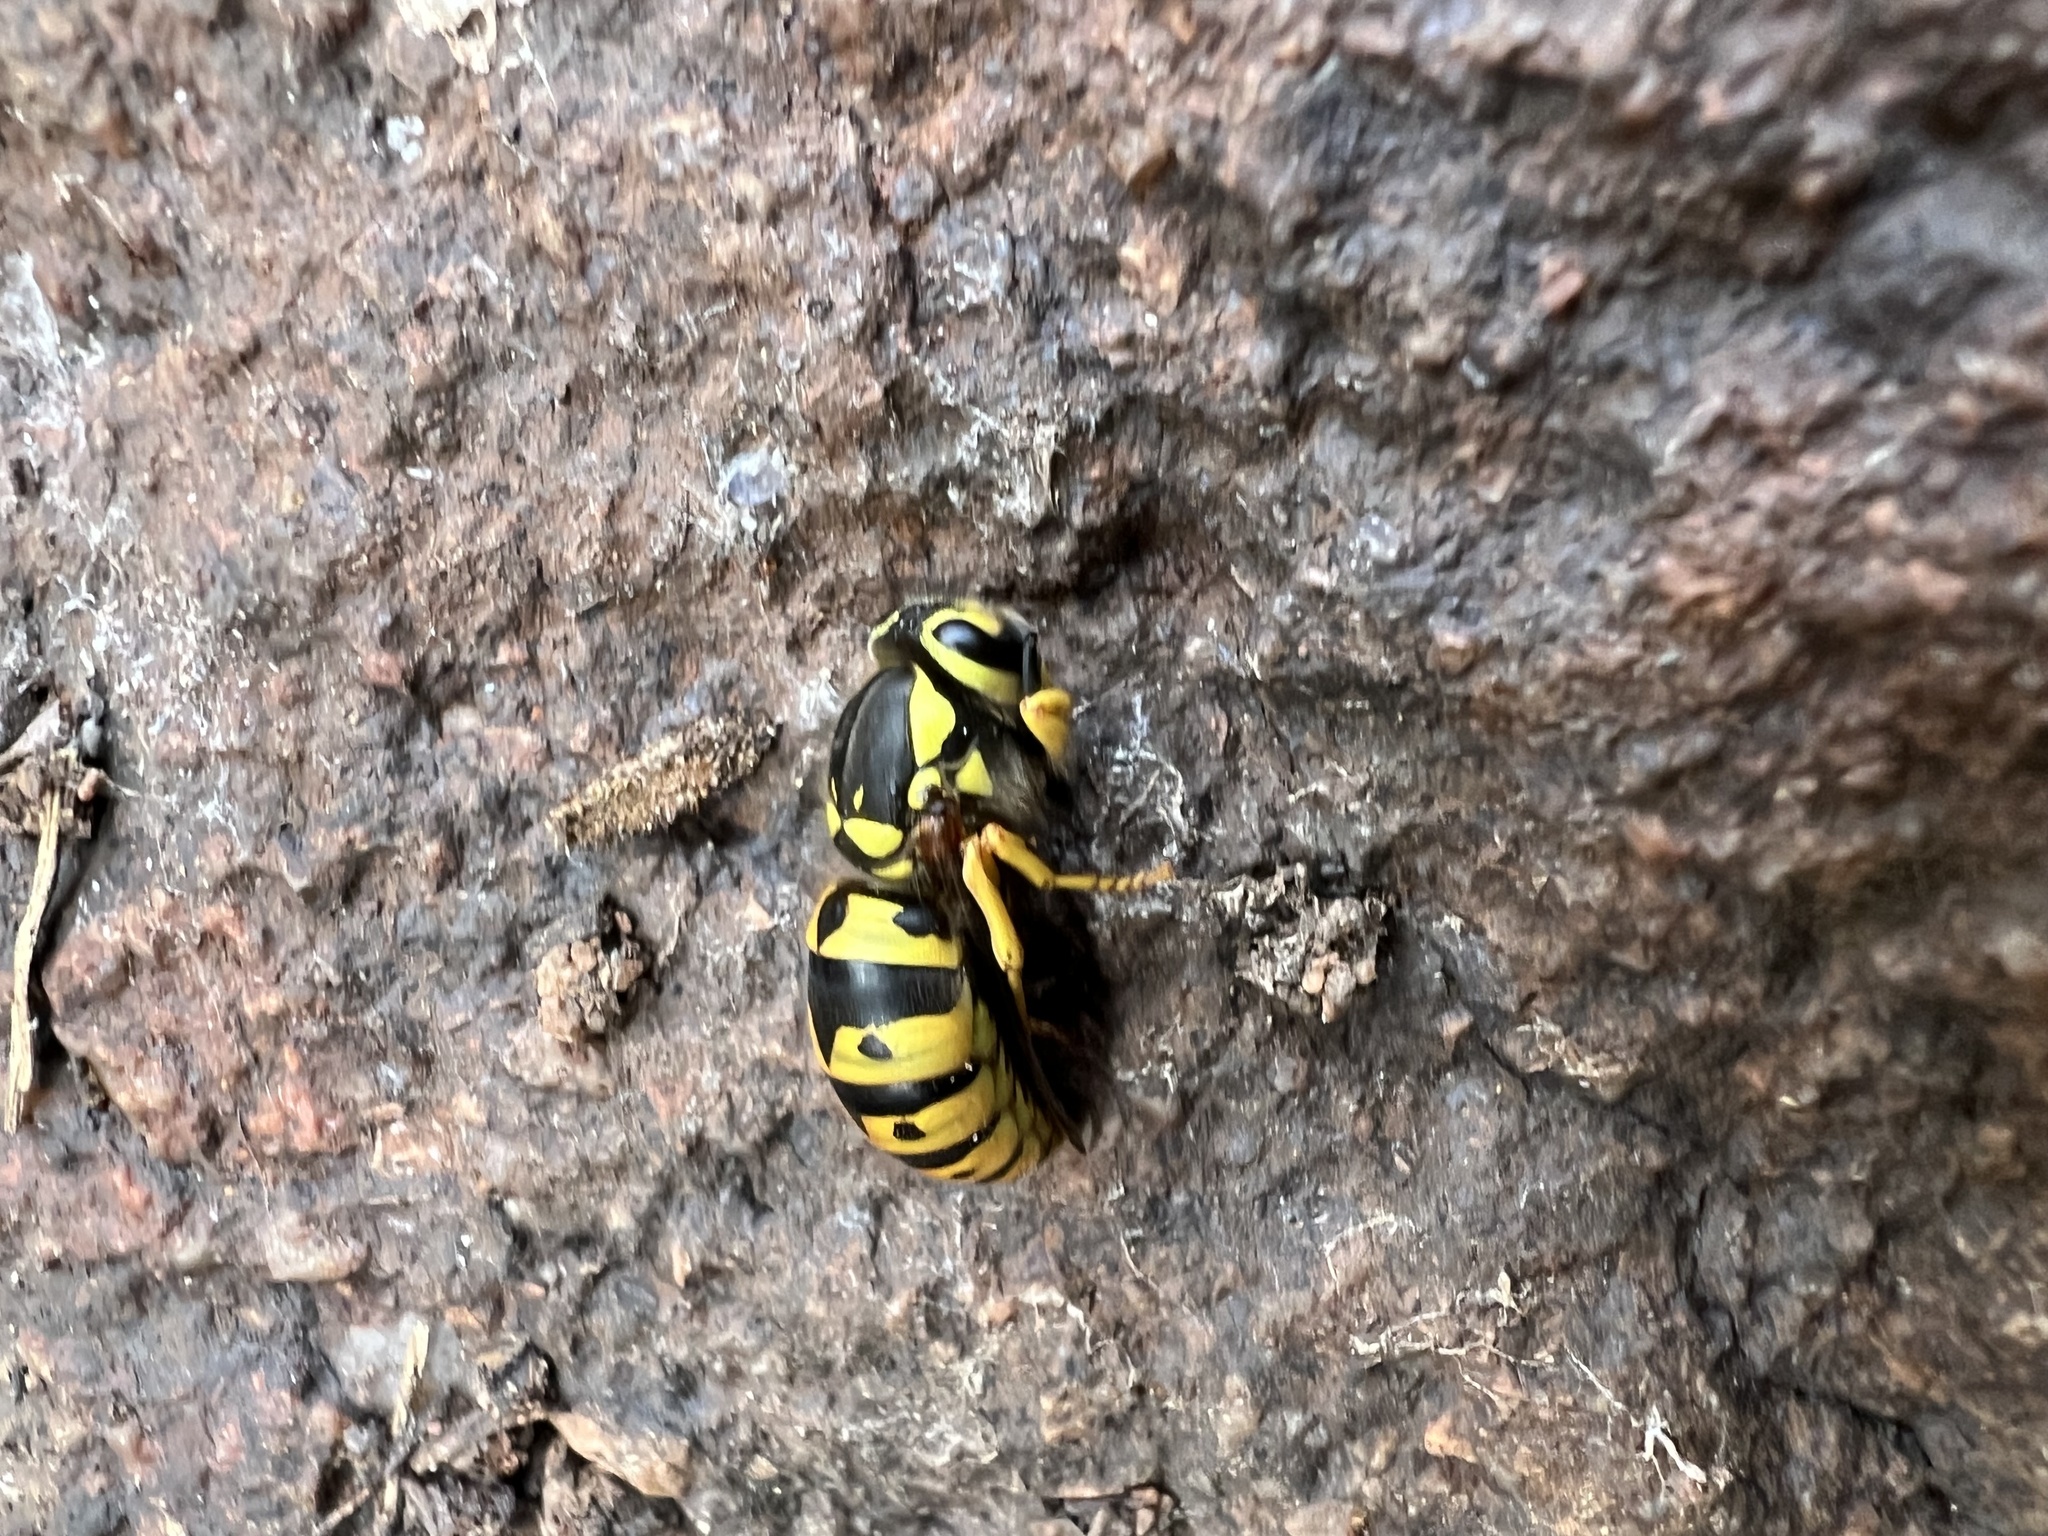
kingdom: Animalia
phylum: Arthropoda
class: Insecta
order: Hymenoptera
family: Vespidae
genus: Vespula
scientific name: Vespula pensylvanica
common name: Western yellowjacket
